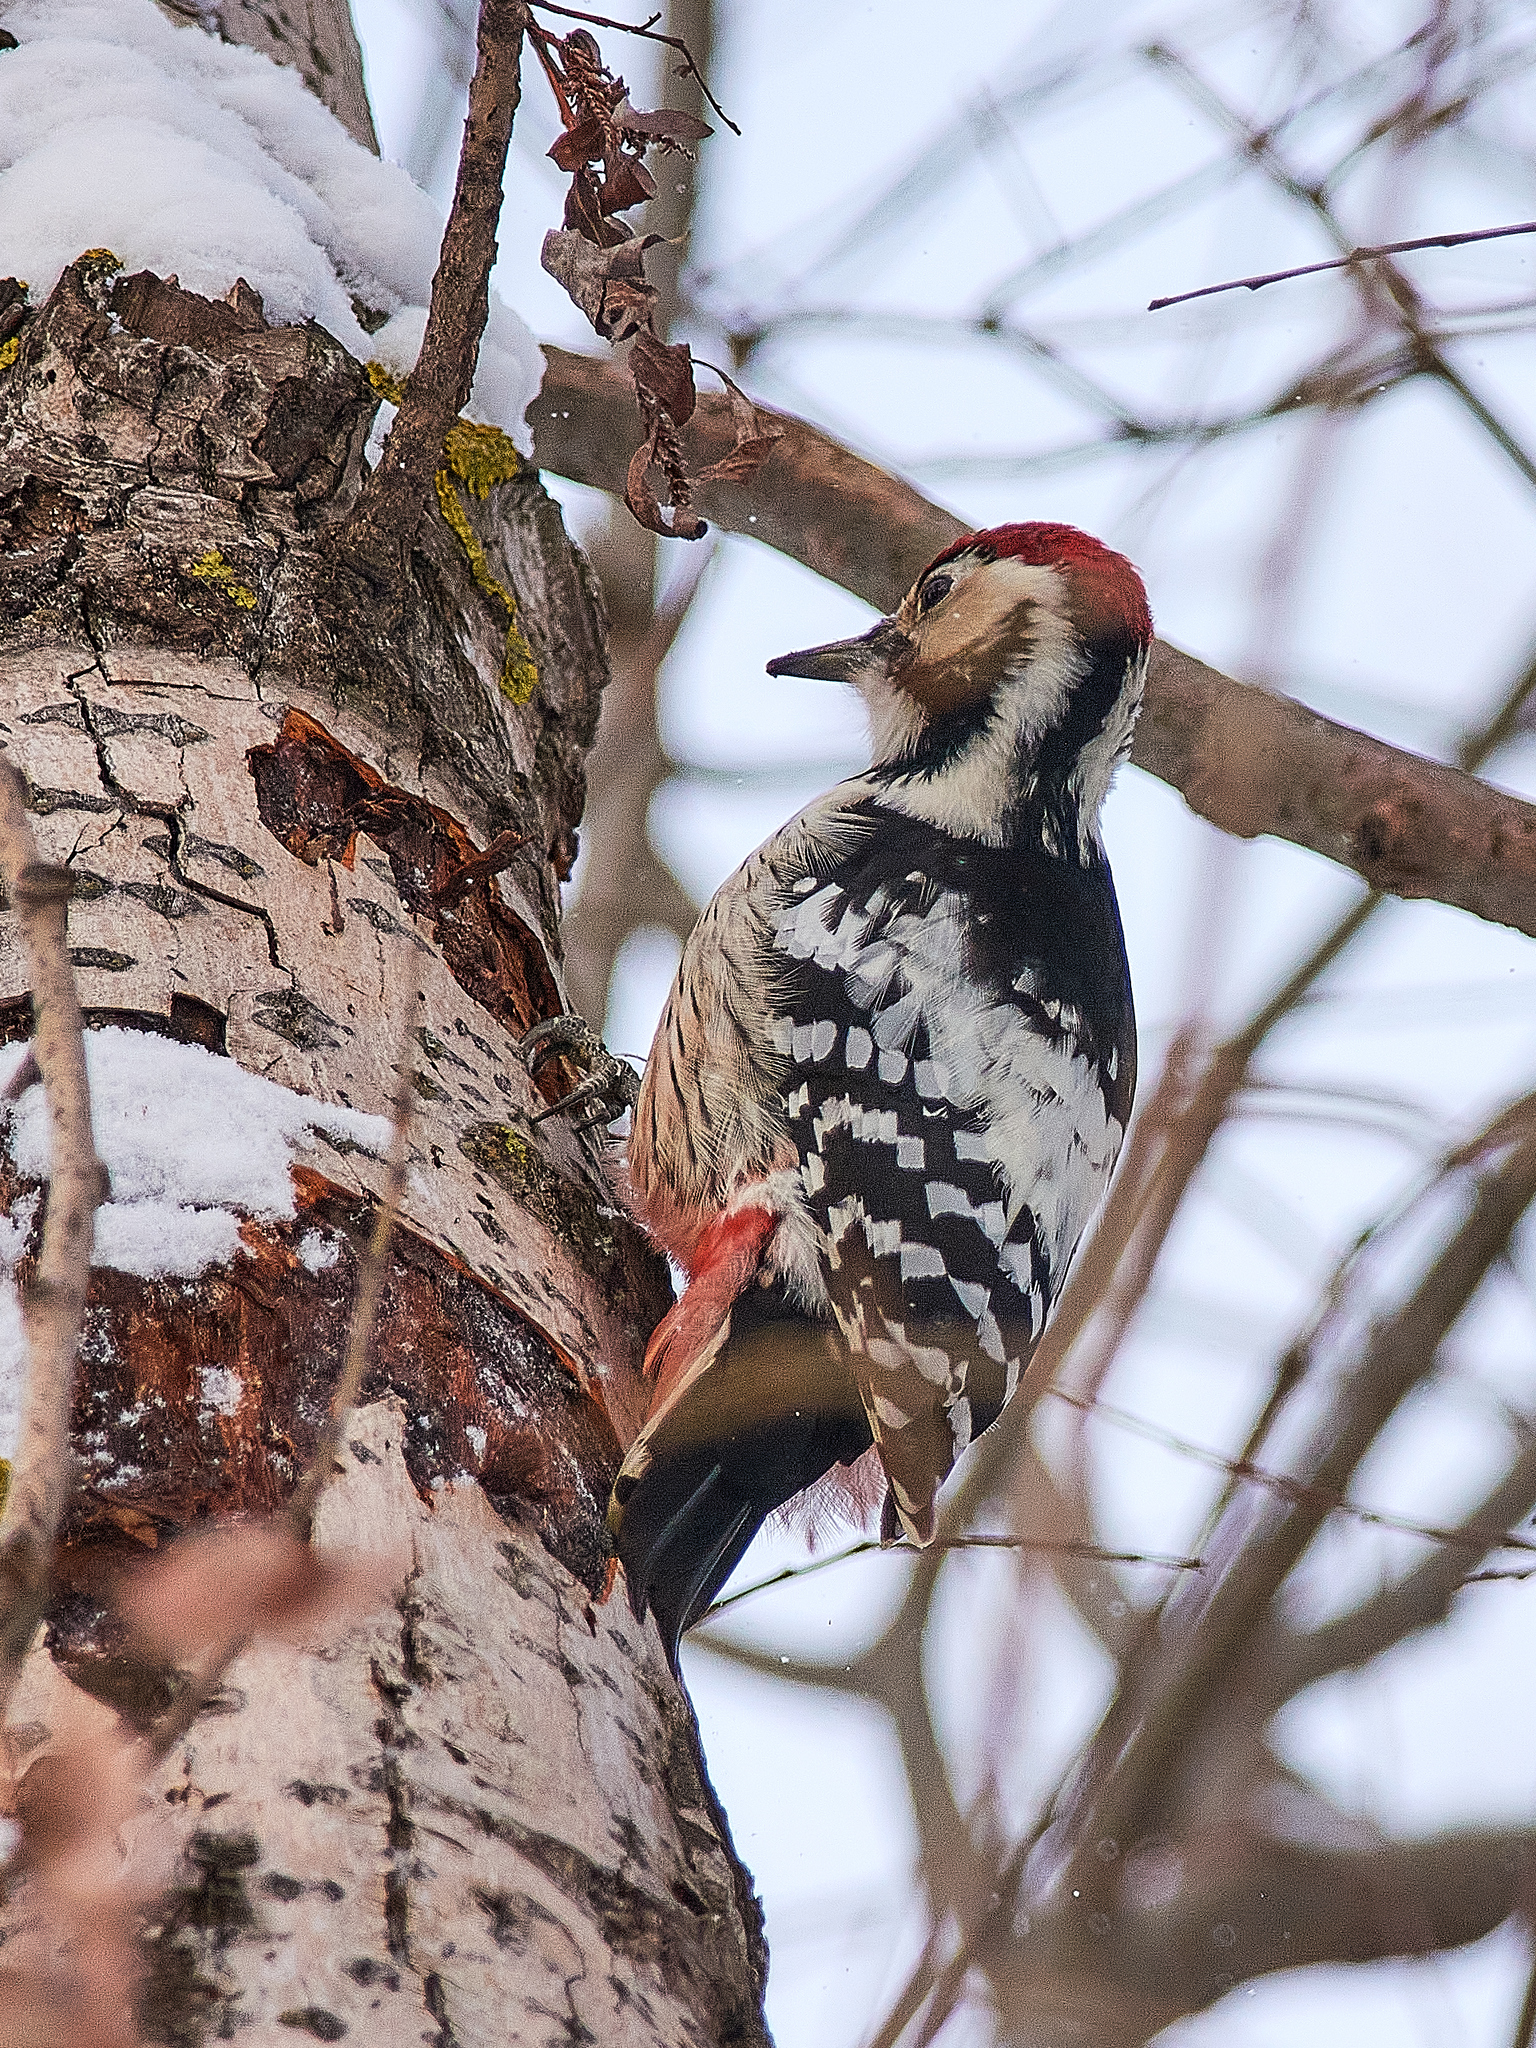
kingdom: Animalia
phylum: Chordata
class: Aves
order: Piciformes
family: Picidae
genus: Dendrocopos
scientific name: Dendrocopos leucotos
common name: White-backed woodpecker
